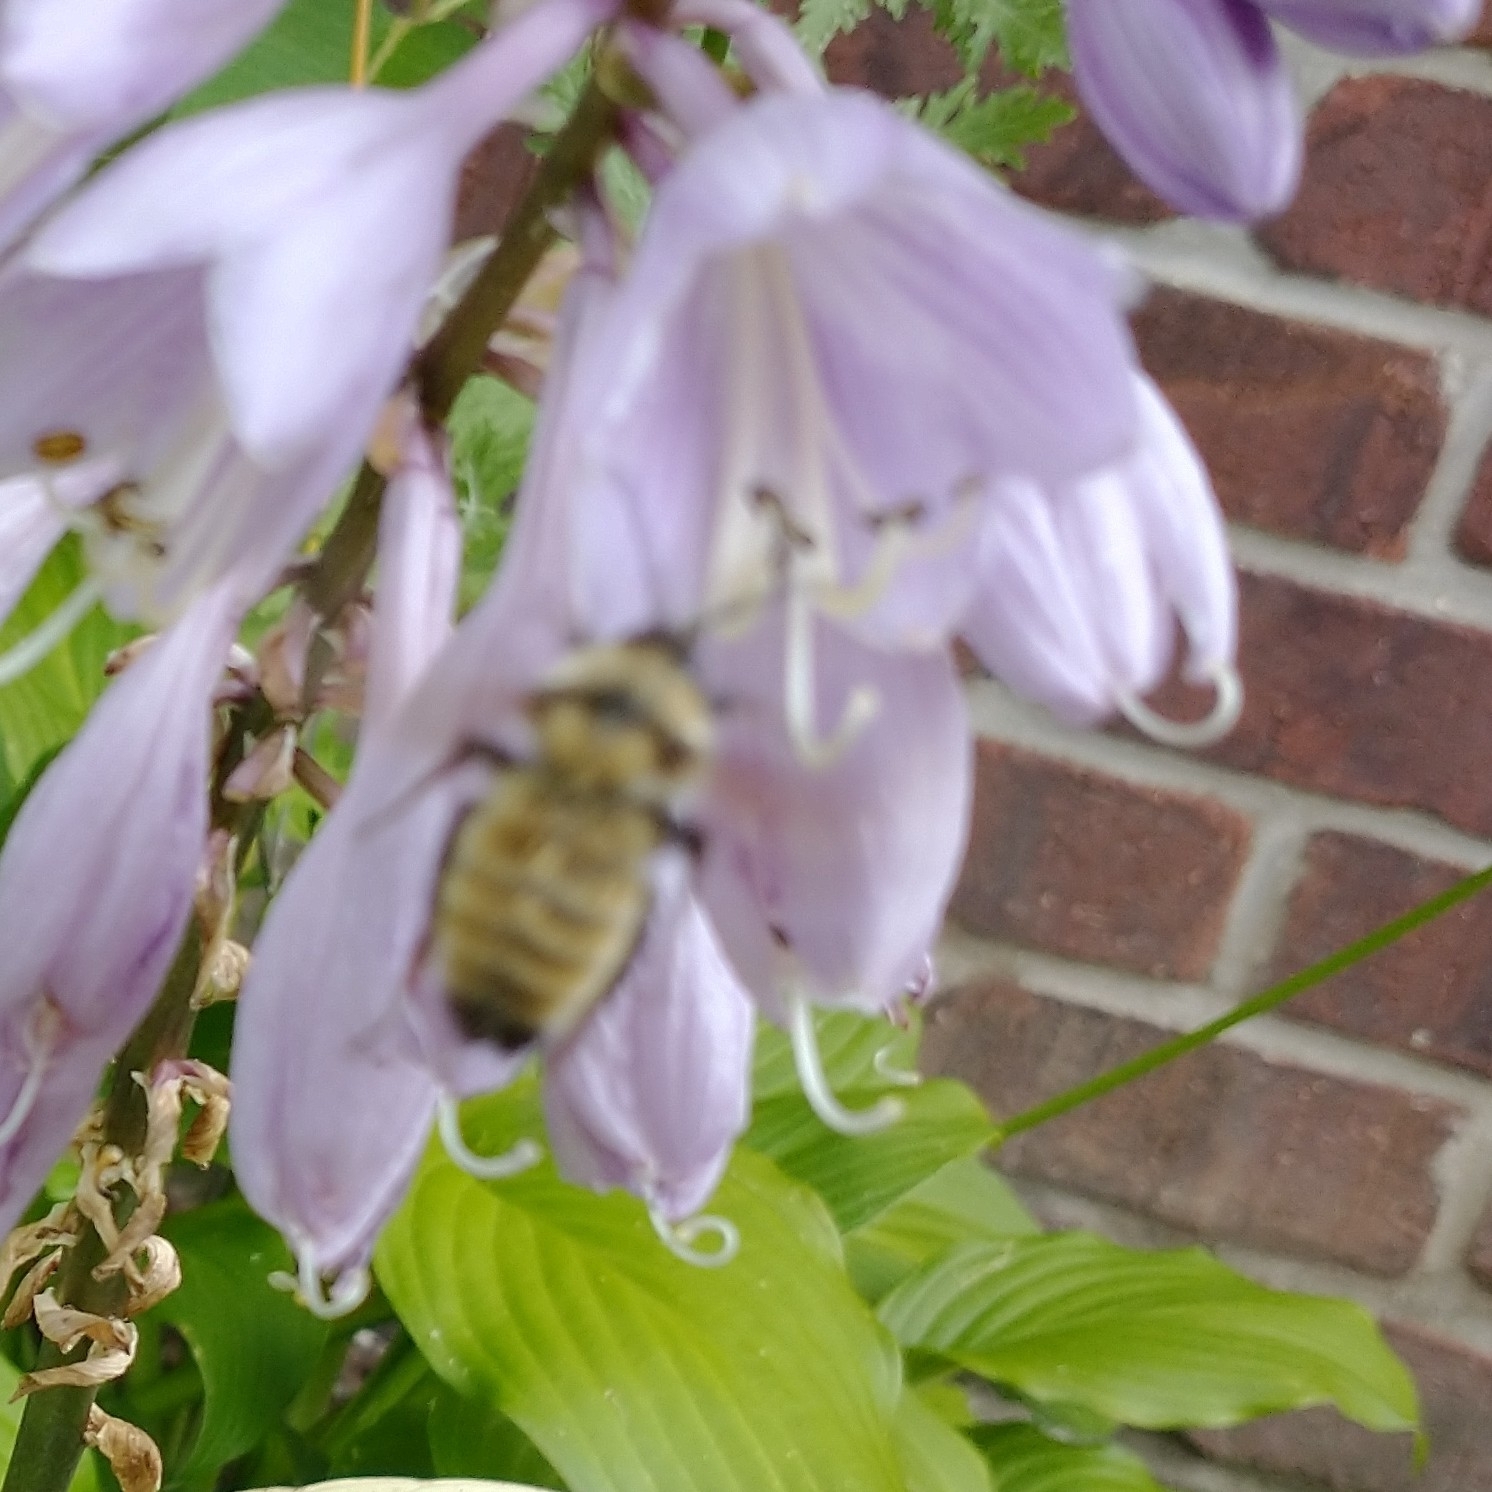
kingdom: Animalia
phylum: Arthropoda
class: Insecta
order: Hymenoptera
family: Apidae
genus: Bombus
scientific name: Bombus fervidus
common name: Yellow bumble bee
